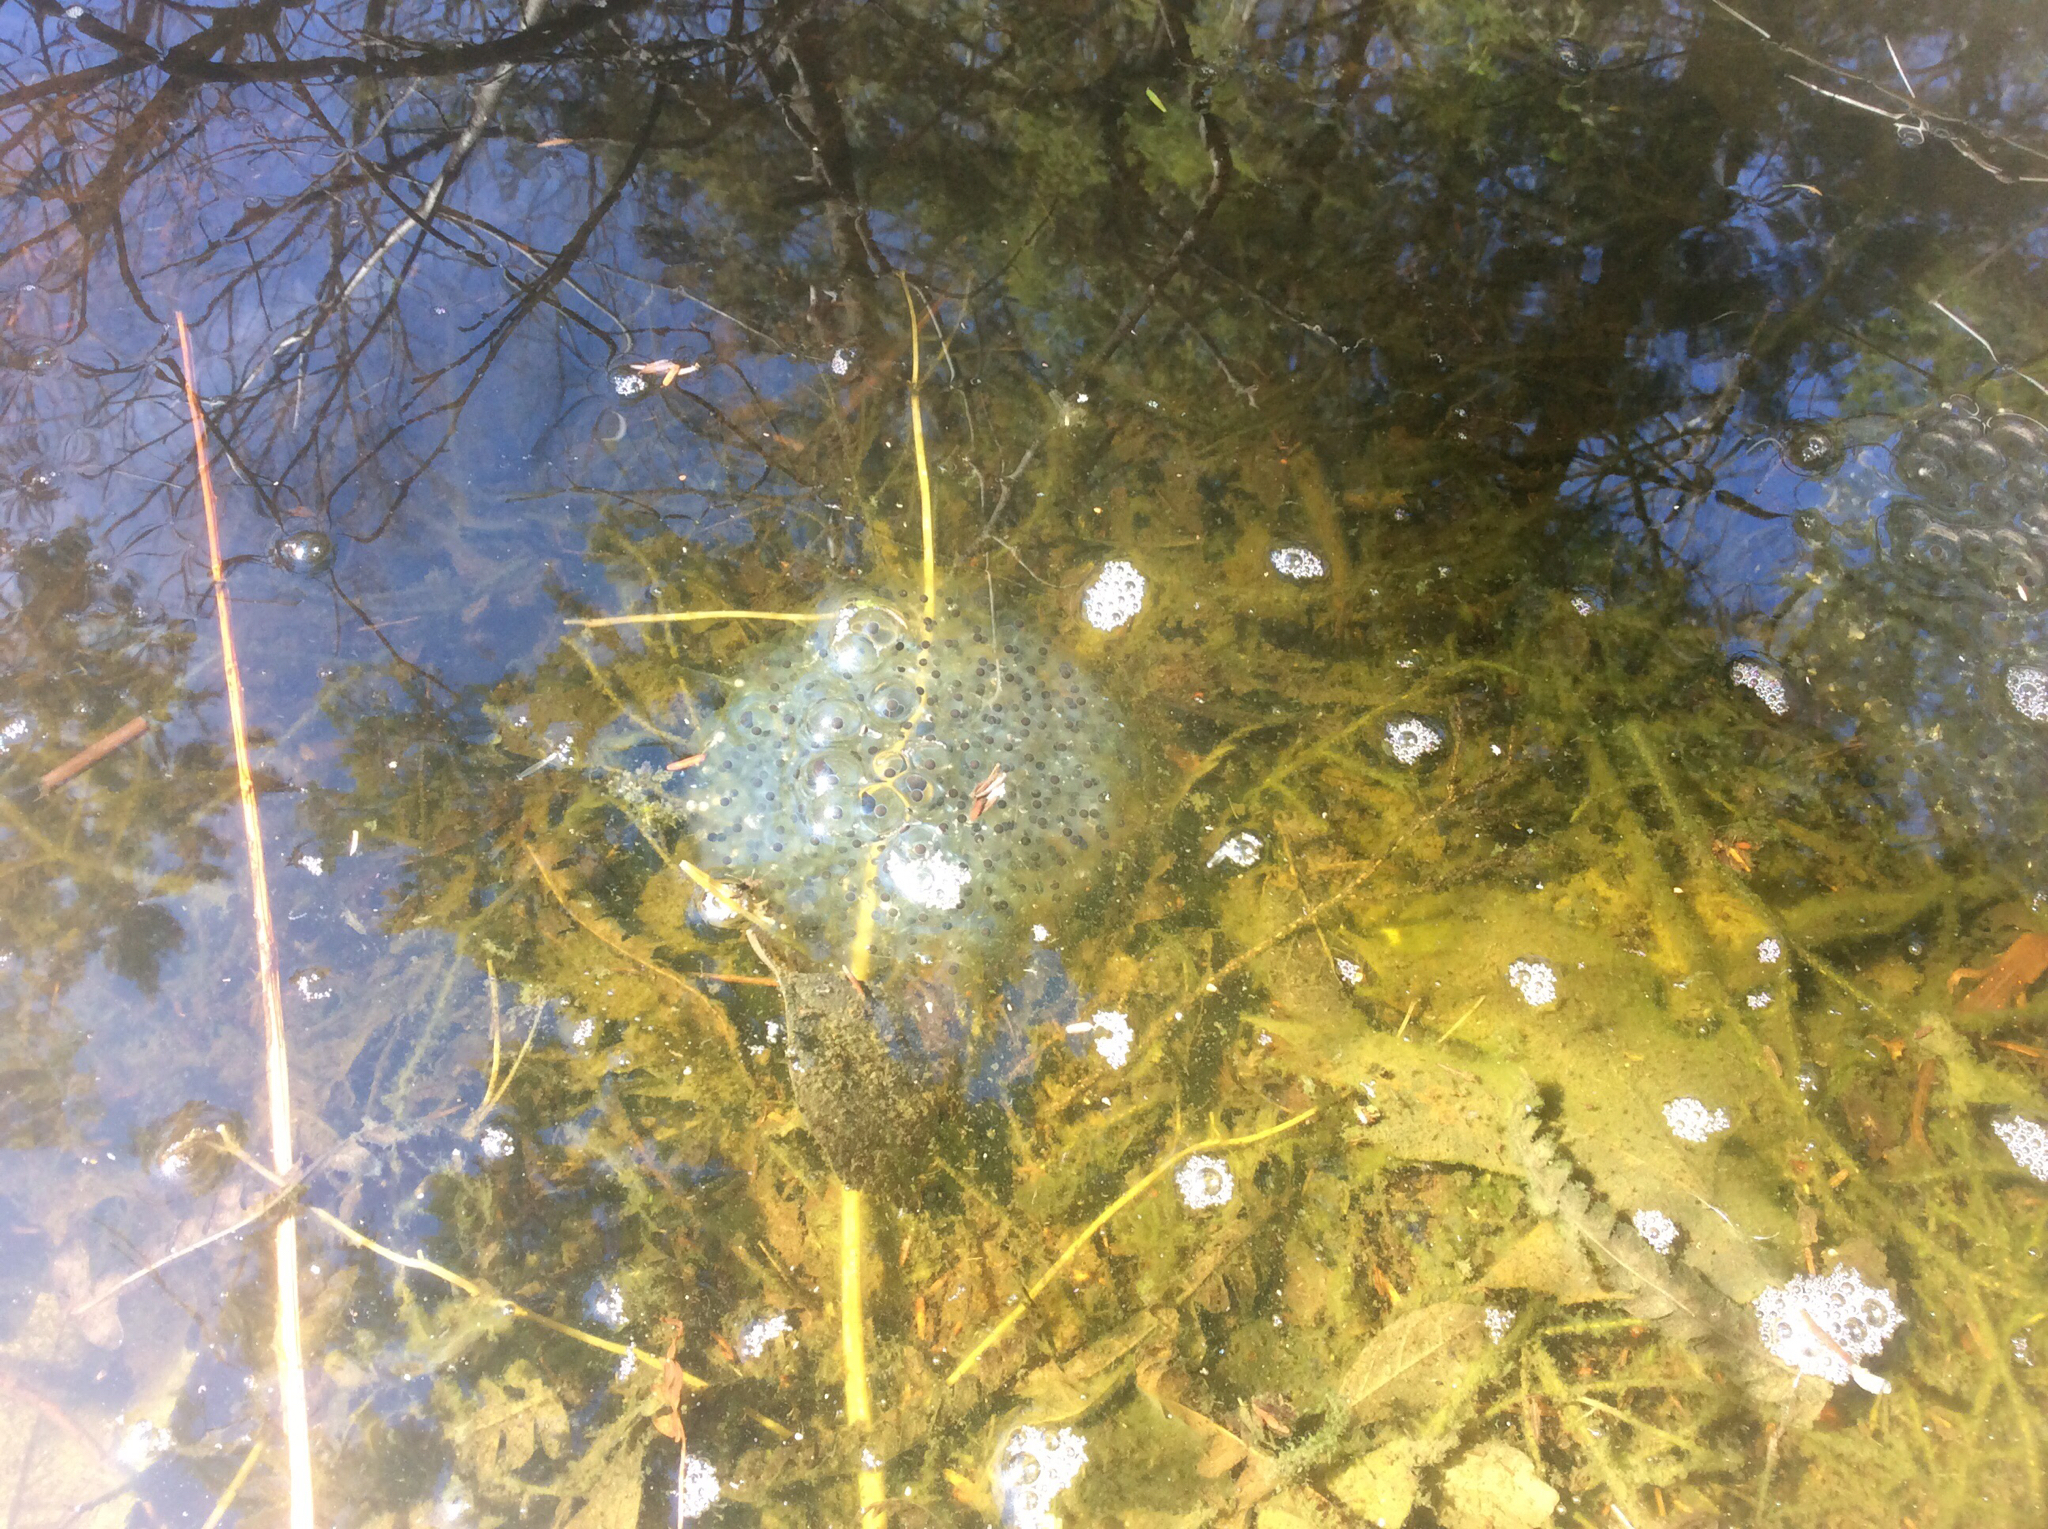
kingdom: Animalia
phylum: Chordata
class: Amphibia
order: Anura
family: Ranidae
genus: Lithobates
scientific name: Lithobates sylvaticus
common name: Wood frog
